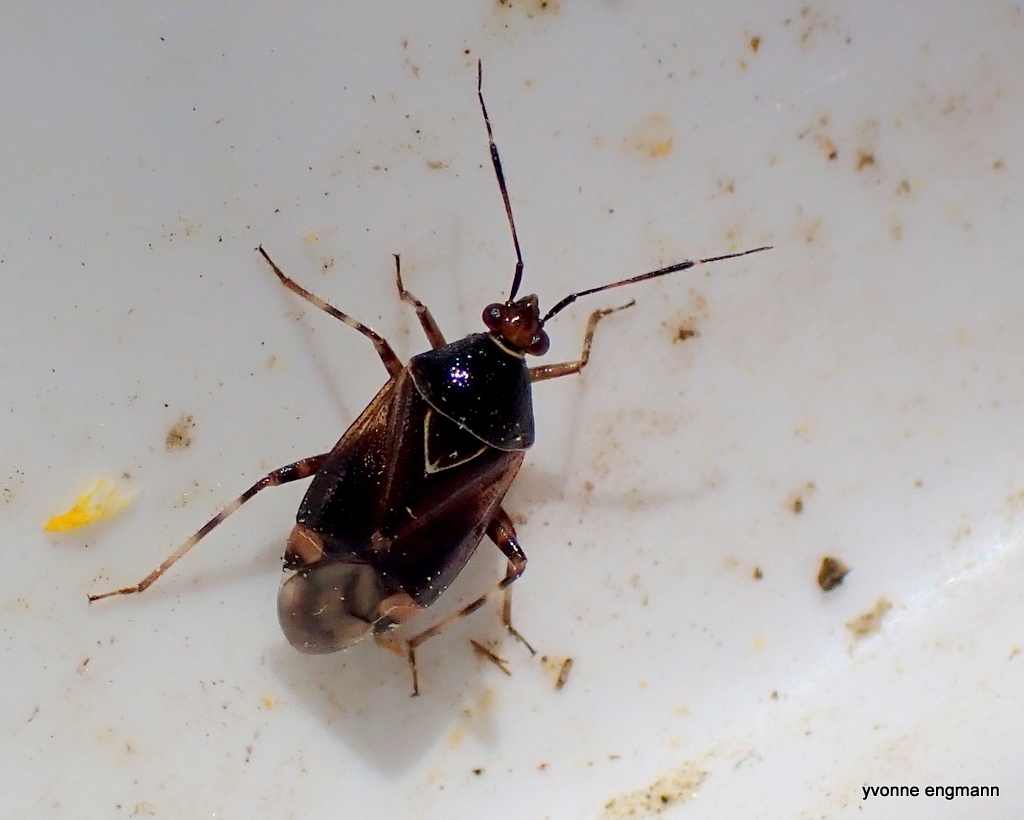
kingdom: Animalia
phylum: Arthropoda
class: Insecta
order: Hemiptera
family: Miridae
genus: Deraeocoris
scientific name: Deraeocoris flavilinea
